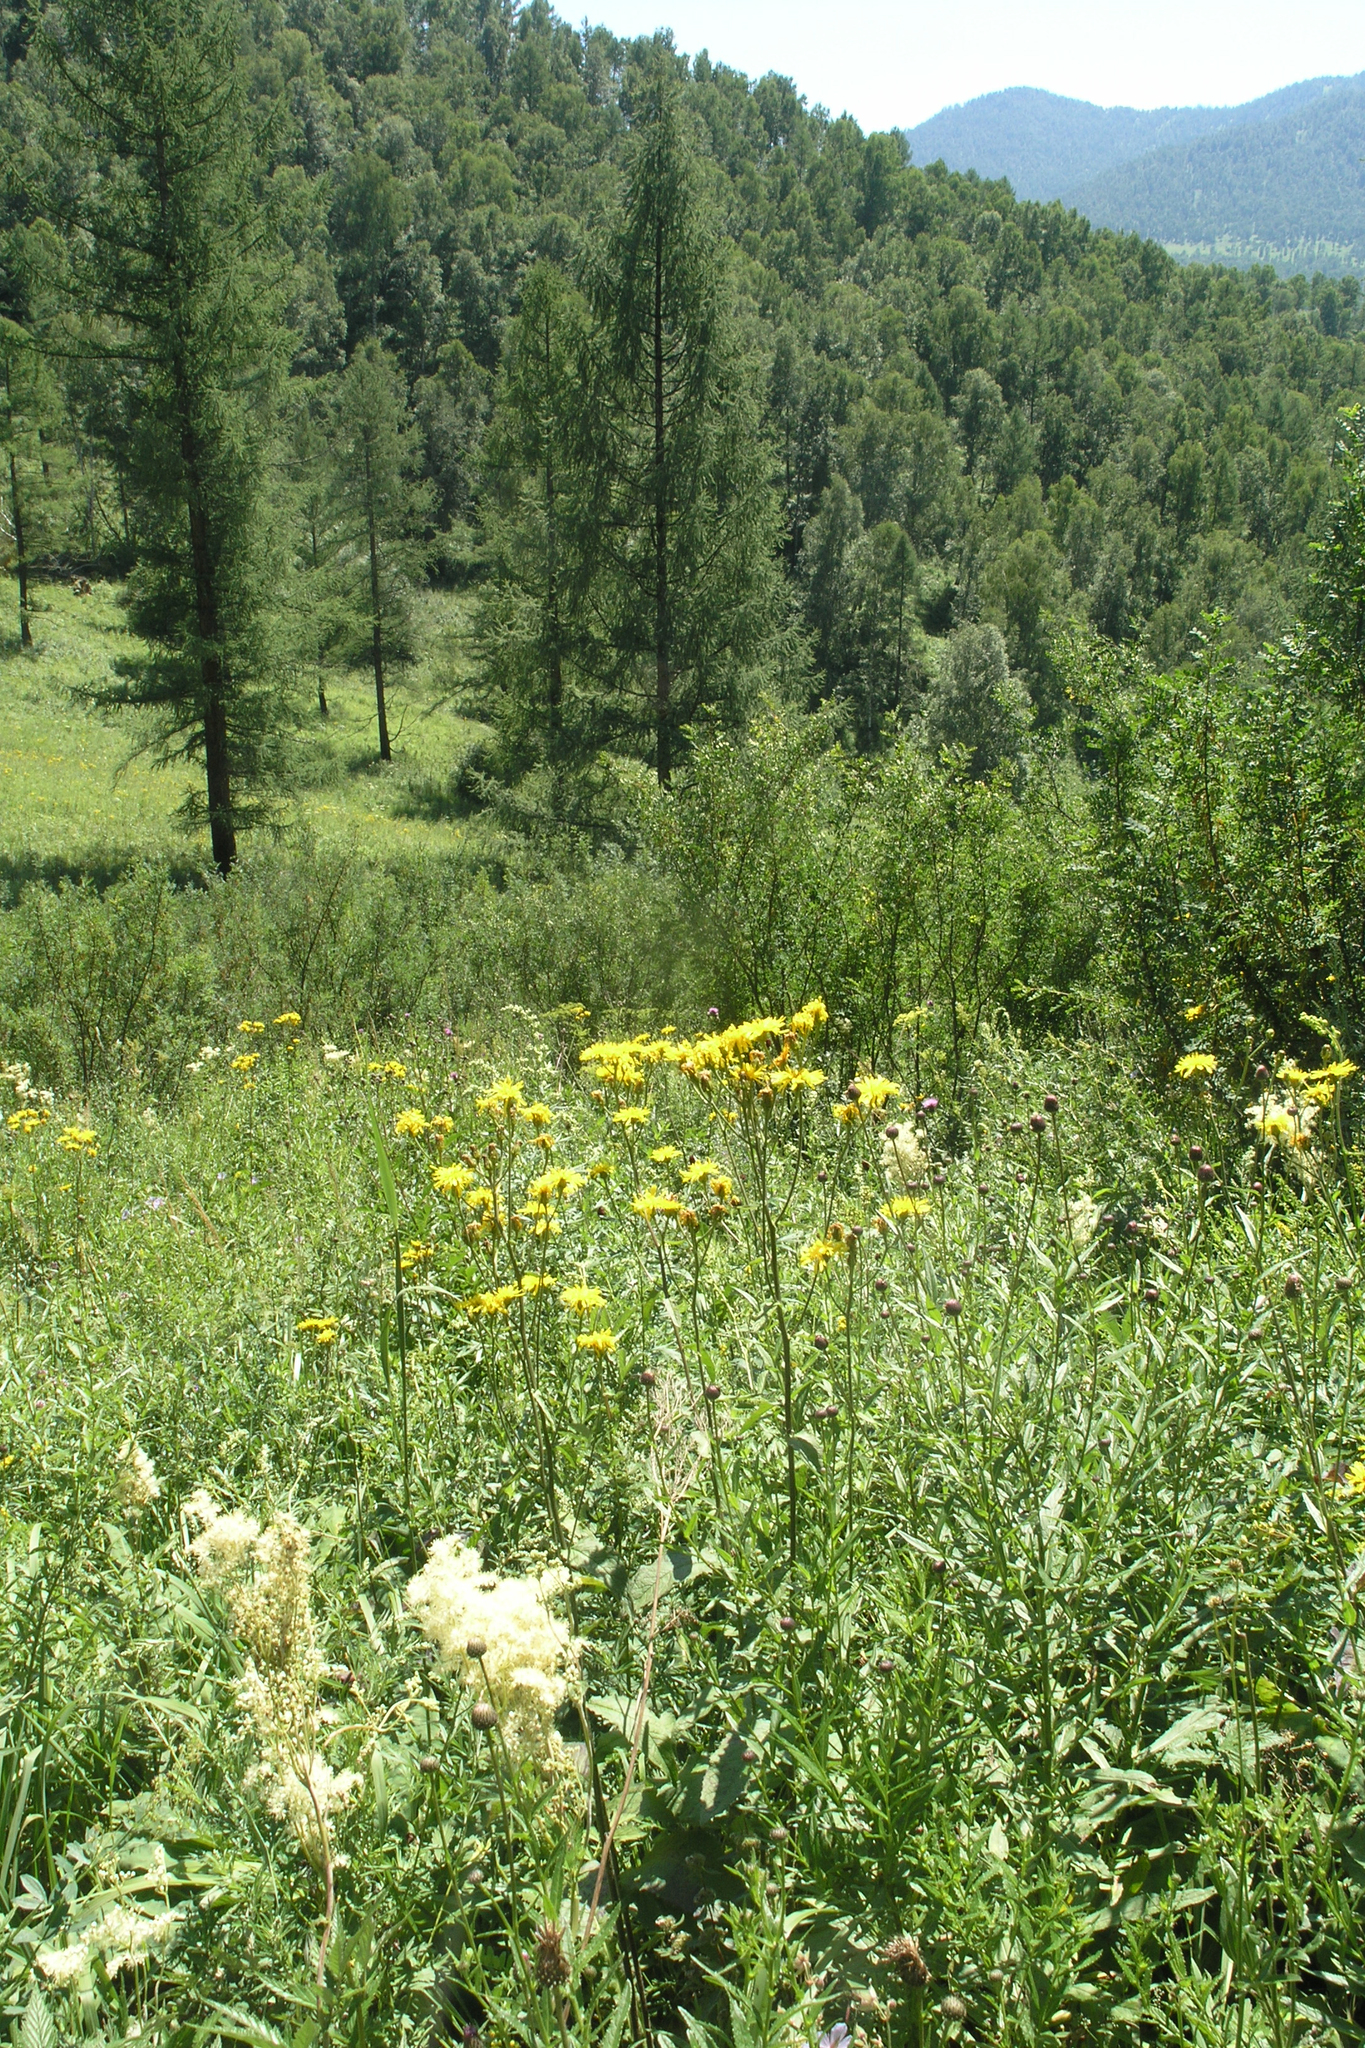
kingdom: Plantae
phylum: Tracheophyta
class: Pinopsida
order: Pinales
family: Pinaceae
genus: Larix
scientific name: Larix sibirica
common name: Siberian larch
